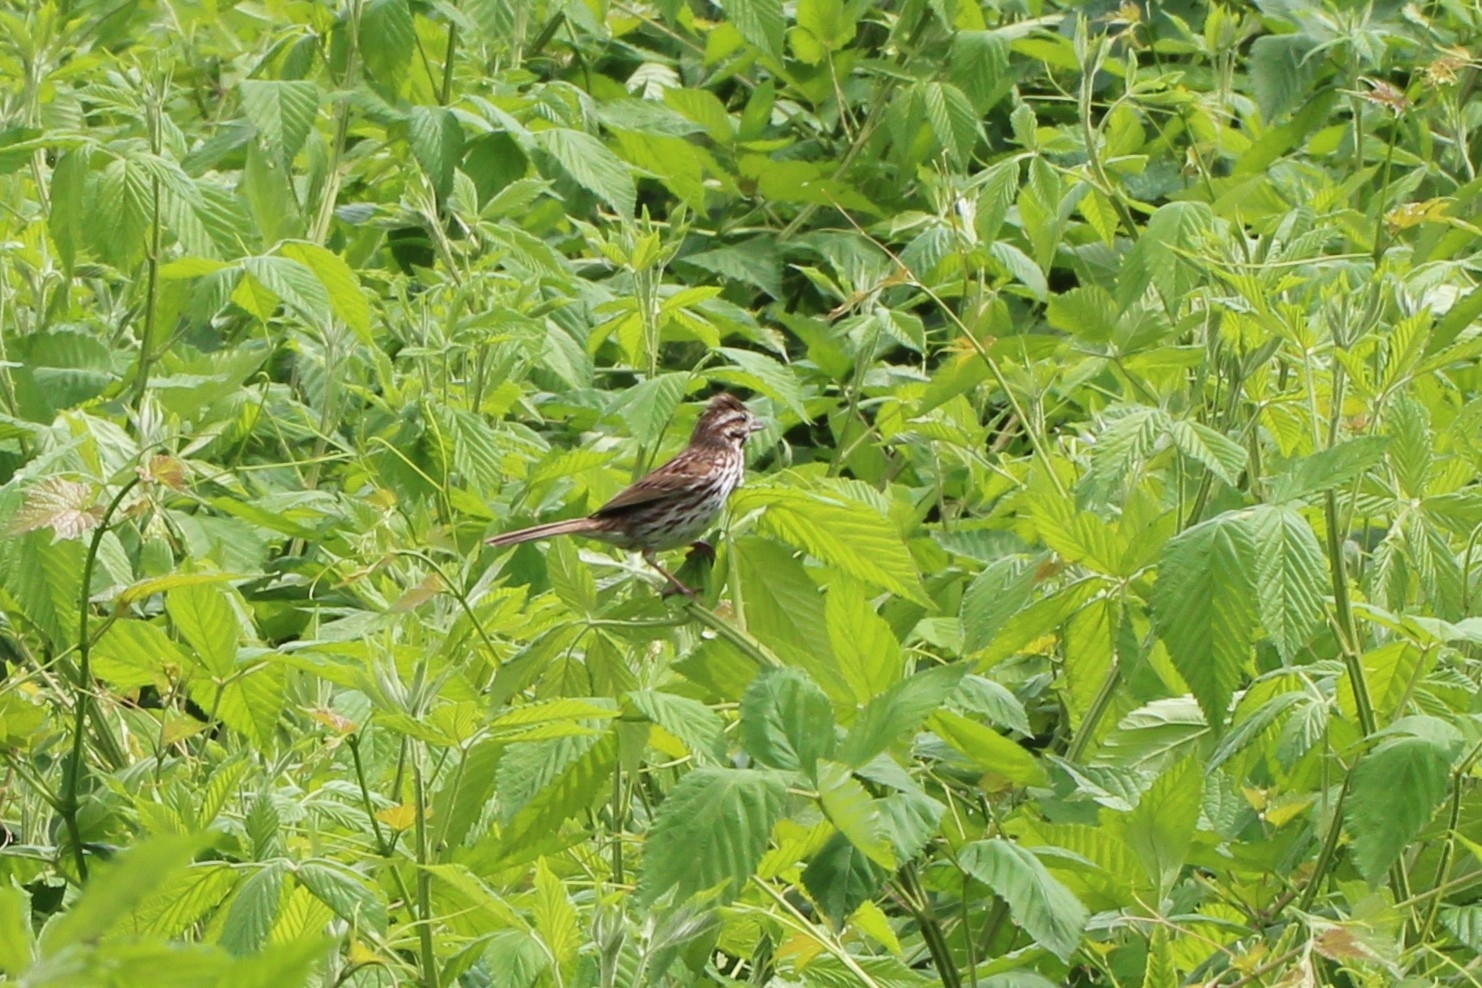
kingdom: Animalia
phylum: Chordata
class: Aves
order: Passeriformes
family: Passerellidae
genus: Melospiza
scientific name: Melospiza melodia
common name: Song sparrow
